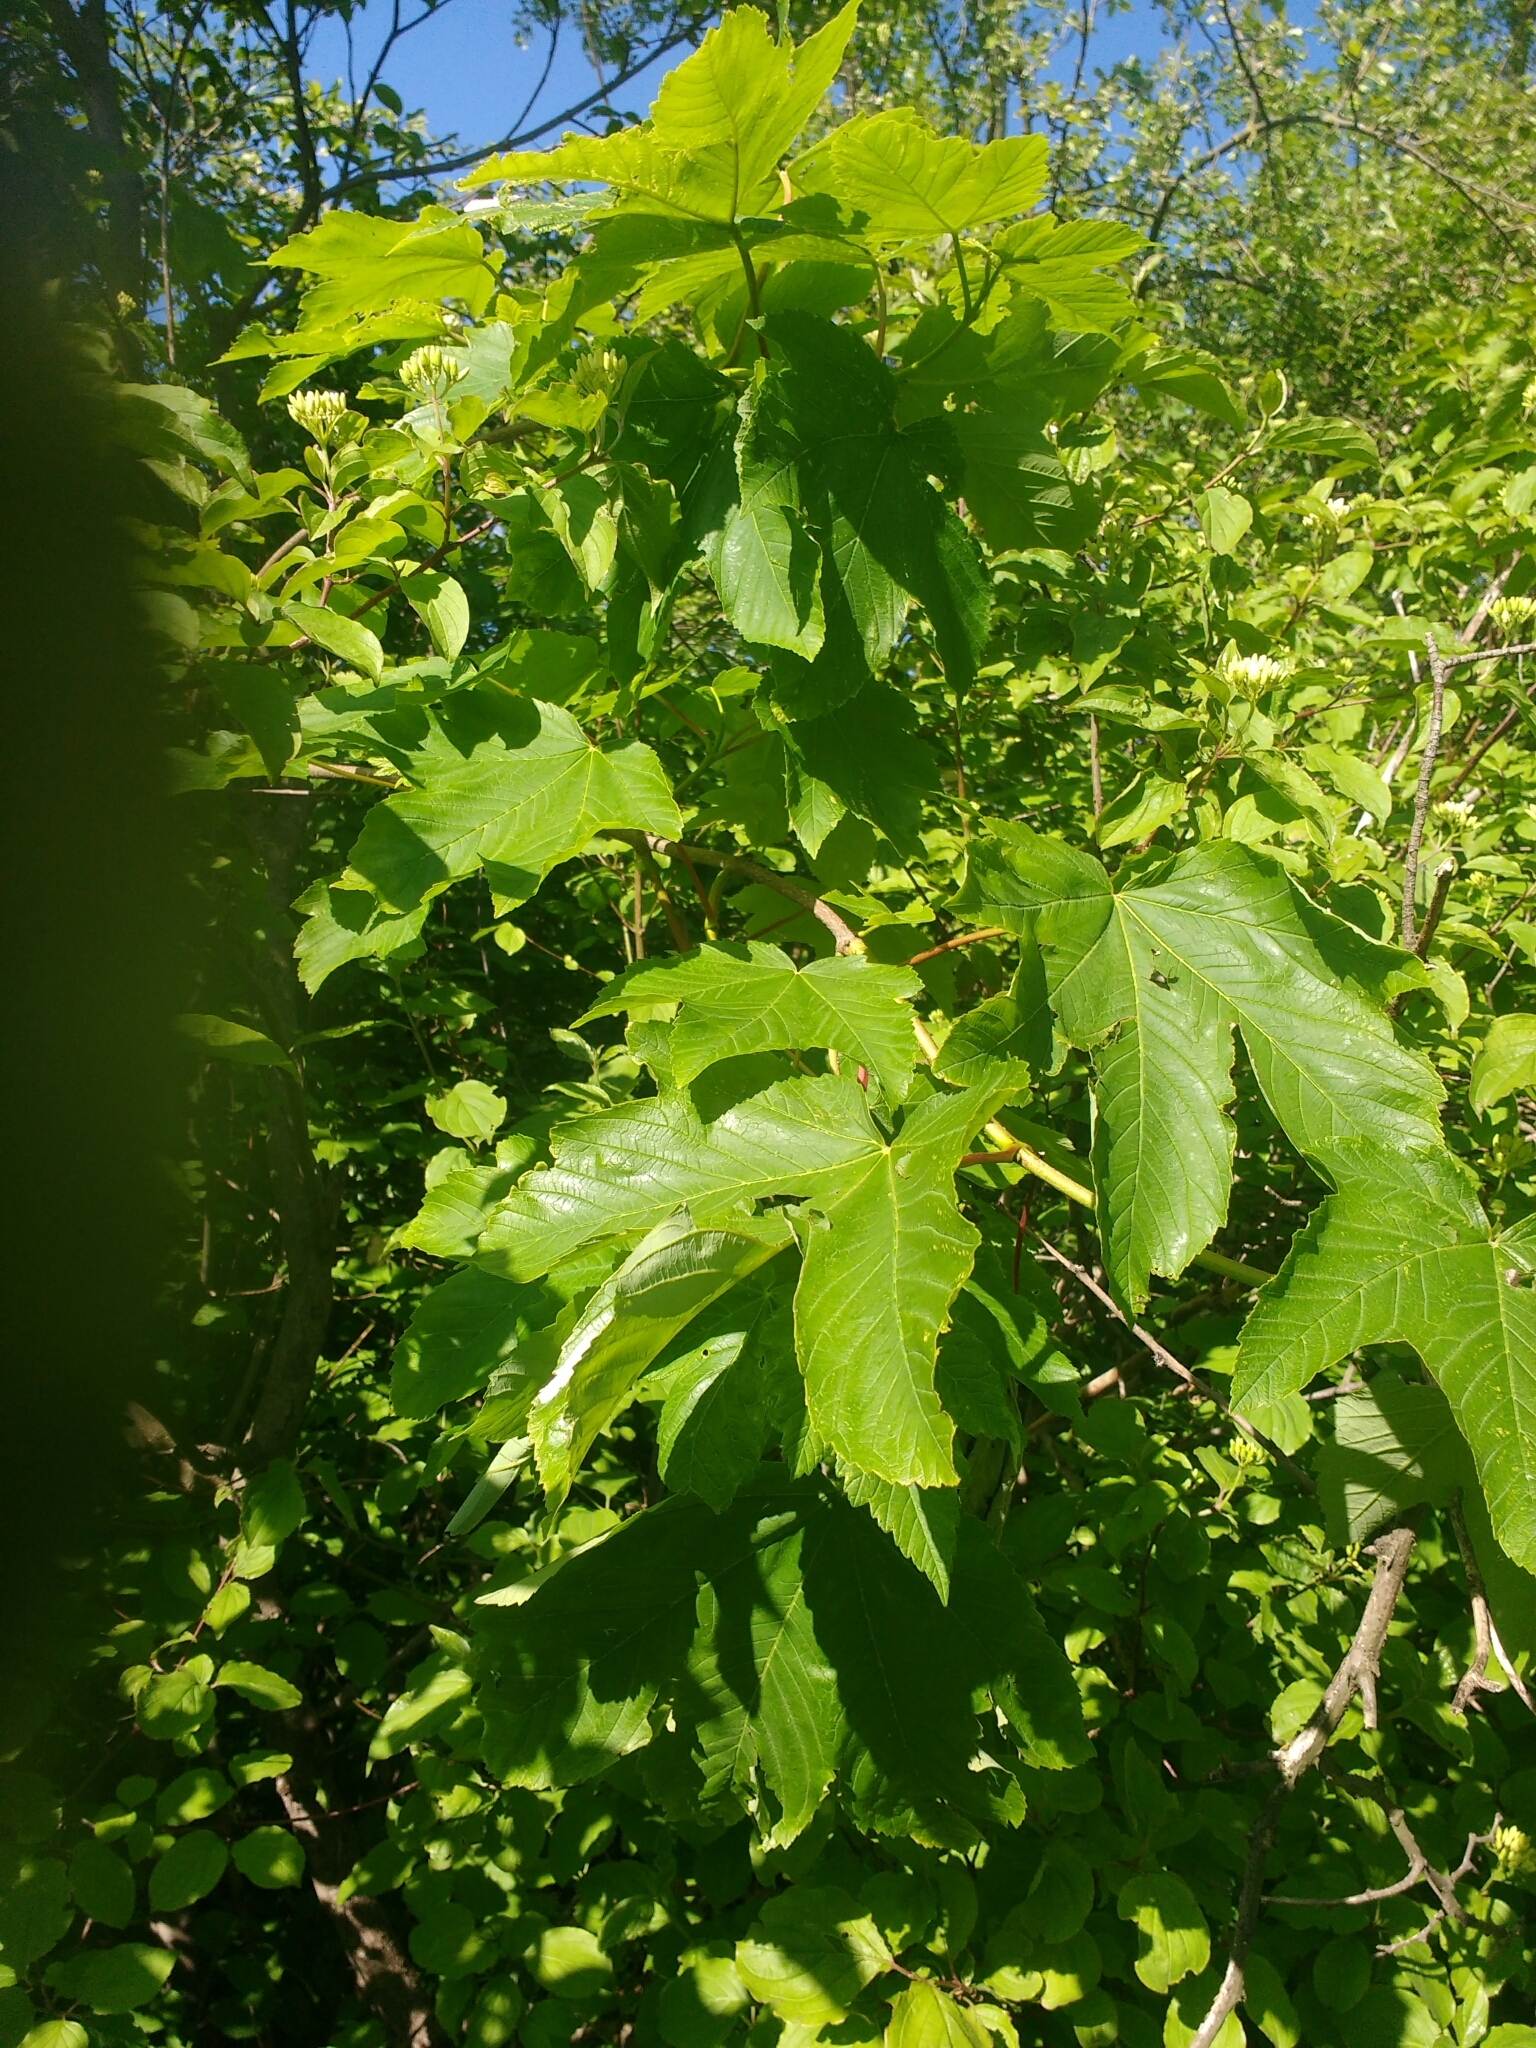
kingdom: Plantae
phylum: Tracheophyta
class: Magnoliopsida
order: Sapindales
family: Sapindaceae
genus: Acer
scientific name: Acer pseudoplatanus
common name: Sycamore
